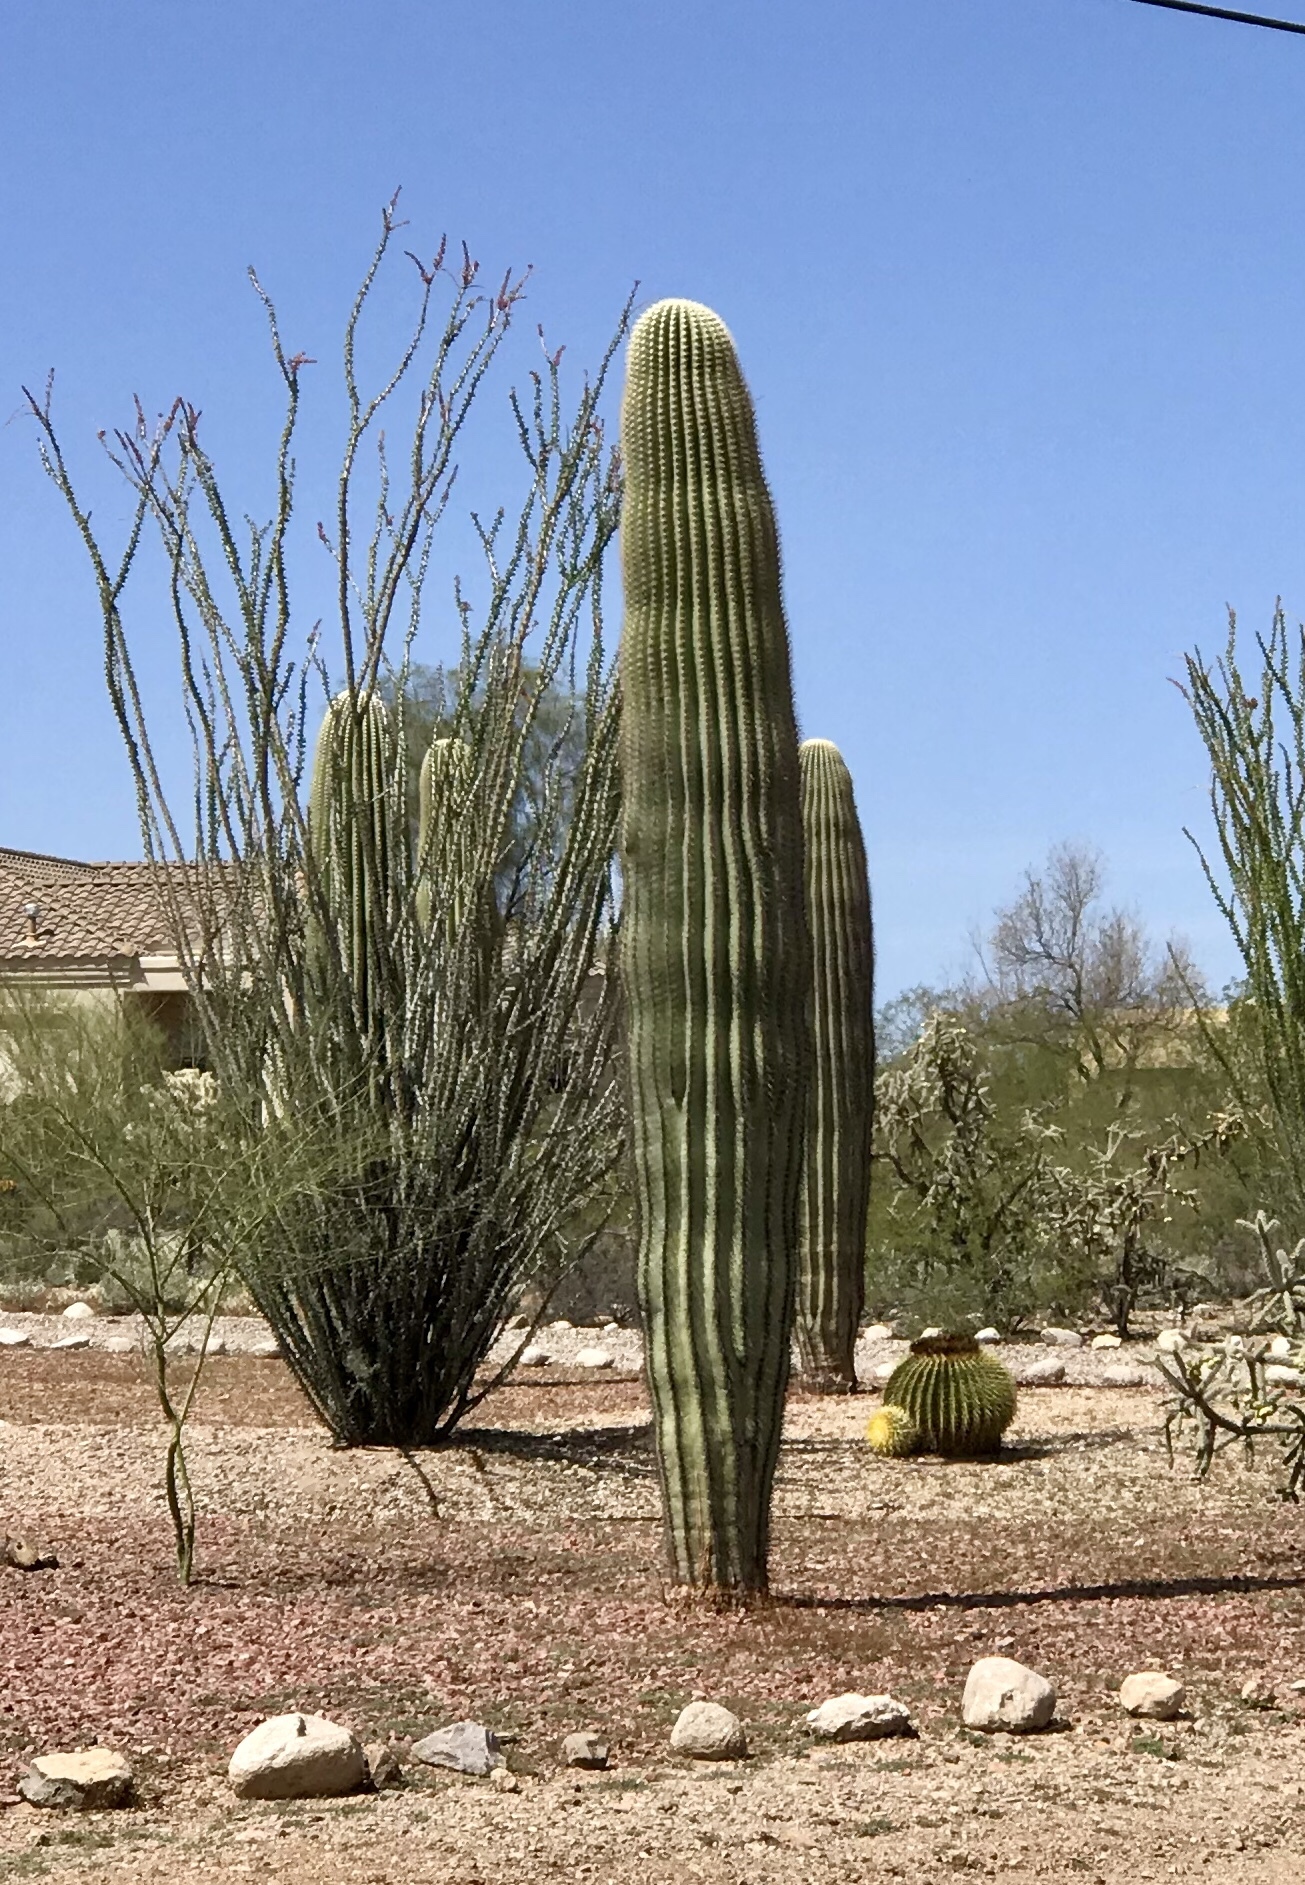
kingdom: Plantae
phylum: Tracheophyta
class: Magnoliopsida
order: Caryophyllales
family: Cactaceae
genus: Carnegiea
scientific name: Carnegiea gigantea
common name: Saguaro
